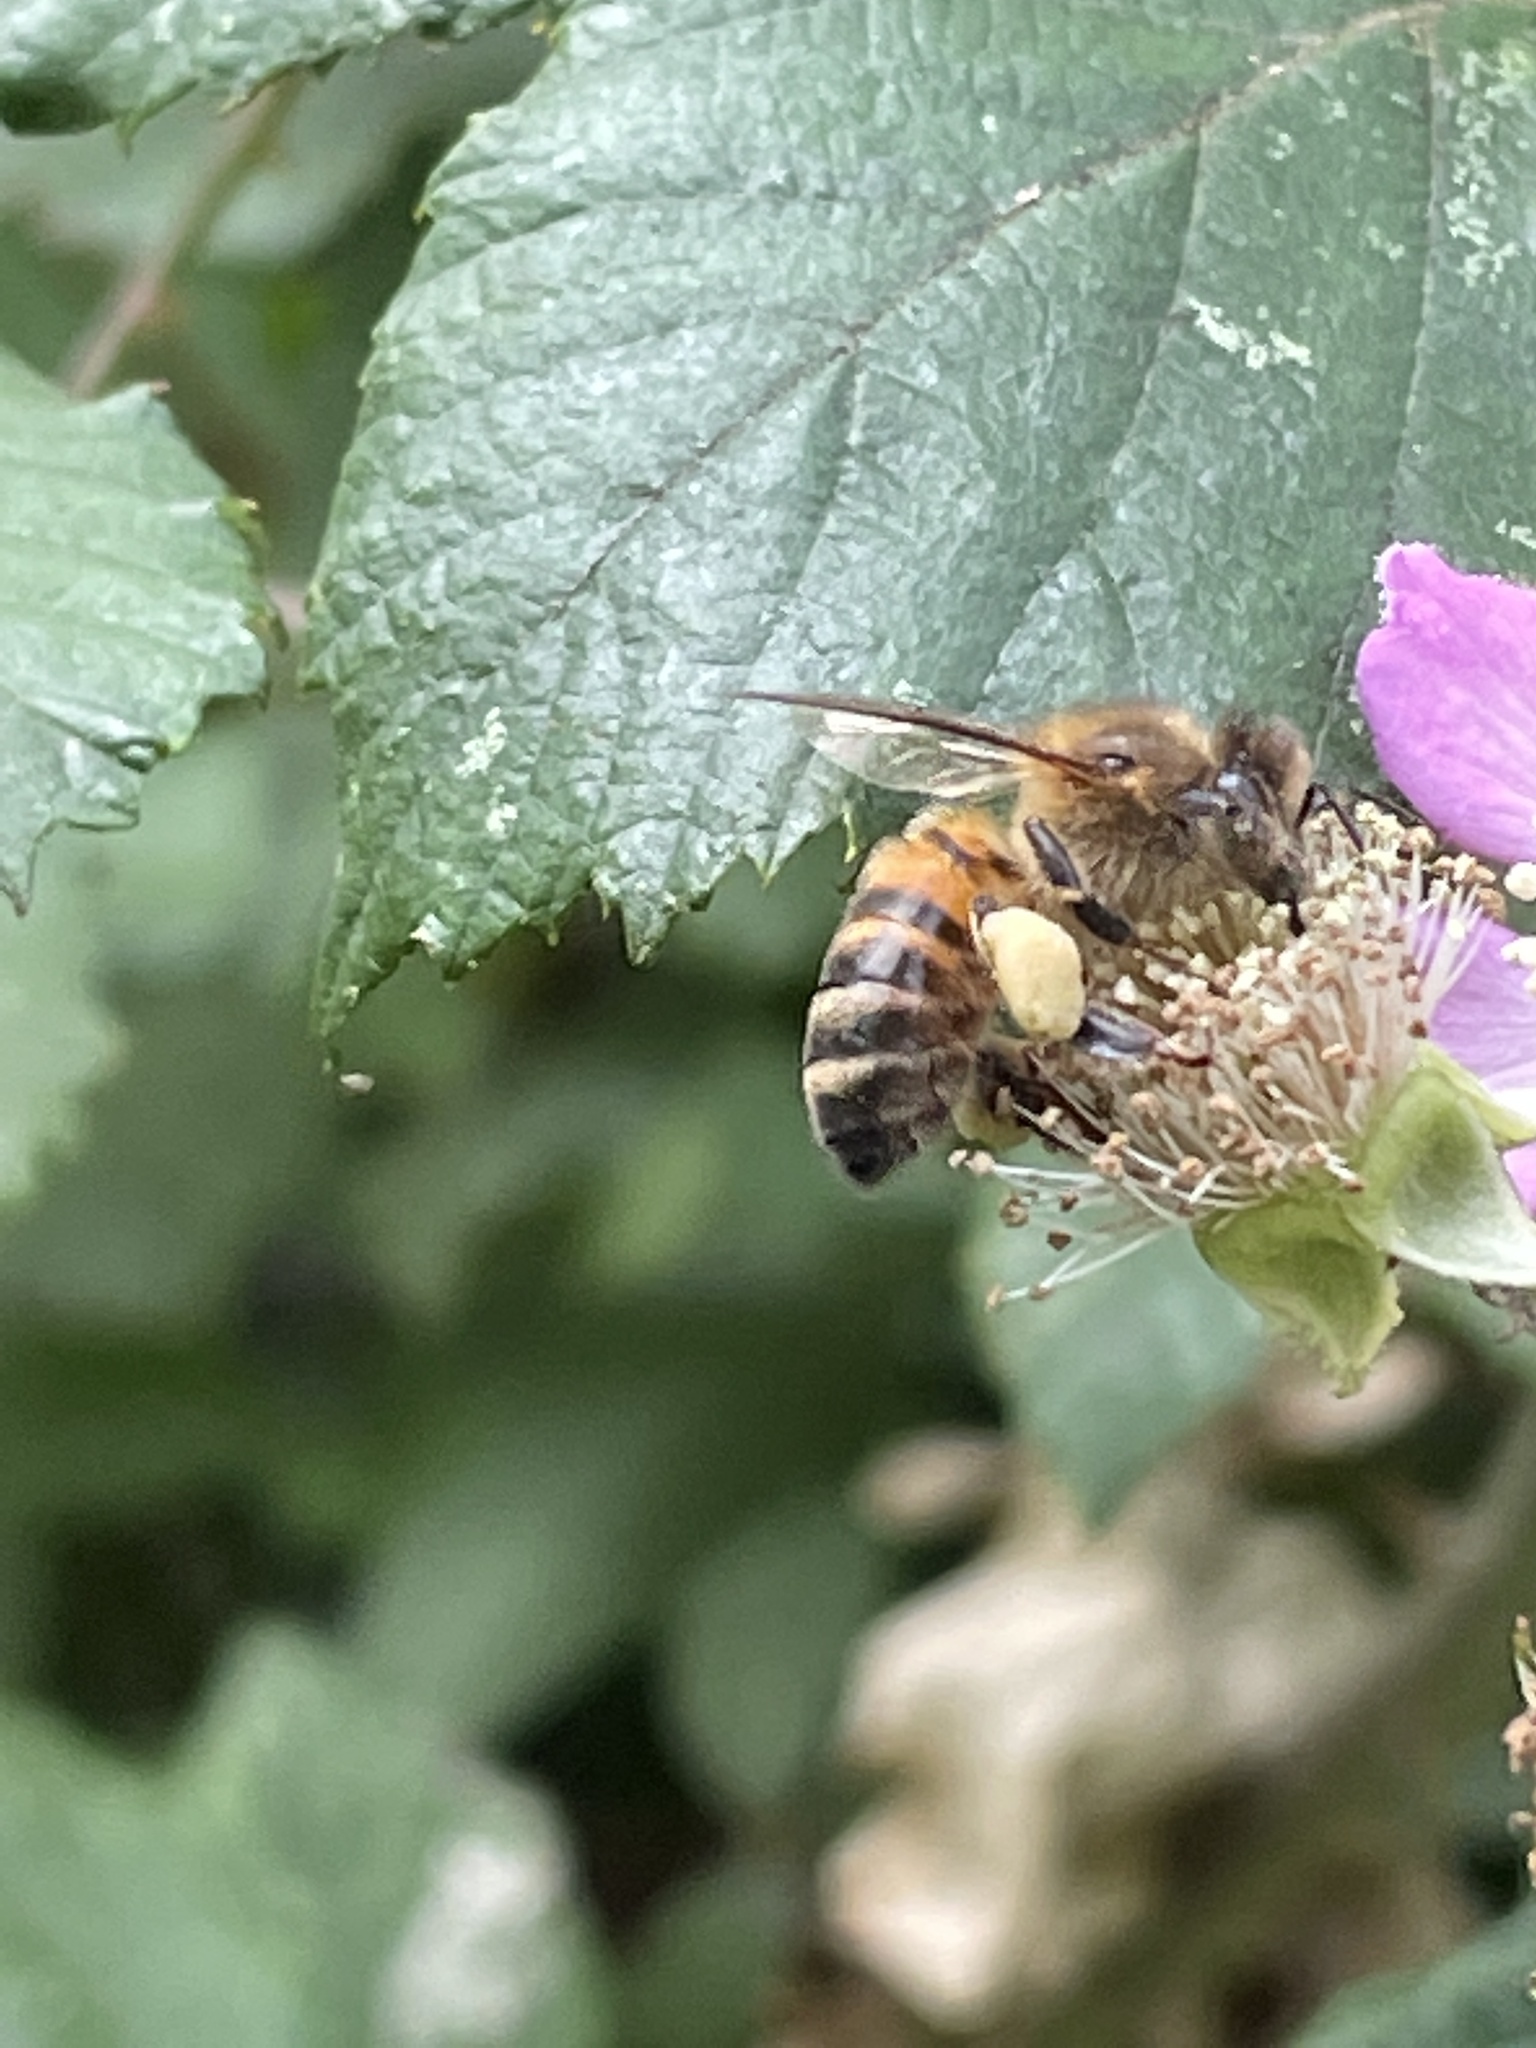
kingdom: Animalia
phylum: Arthropoda
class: Insecta
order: Hymenoptera
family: Apidae
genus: Apis
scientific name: Apis mellifera
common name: Honey bee
